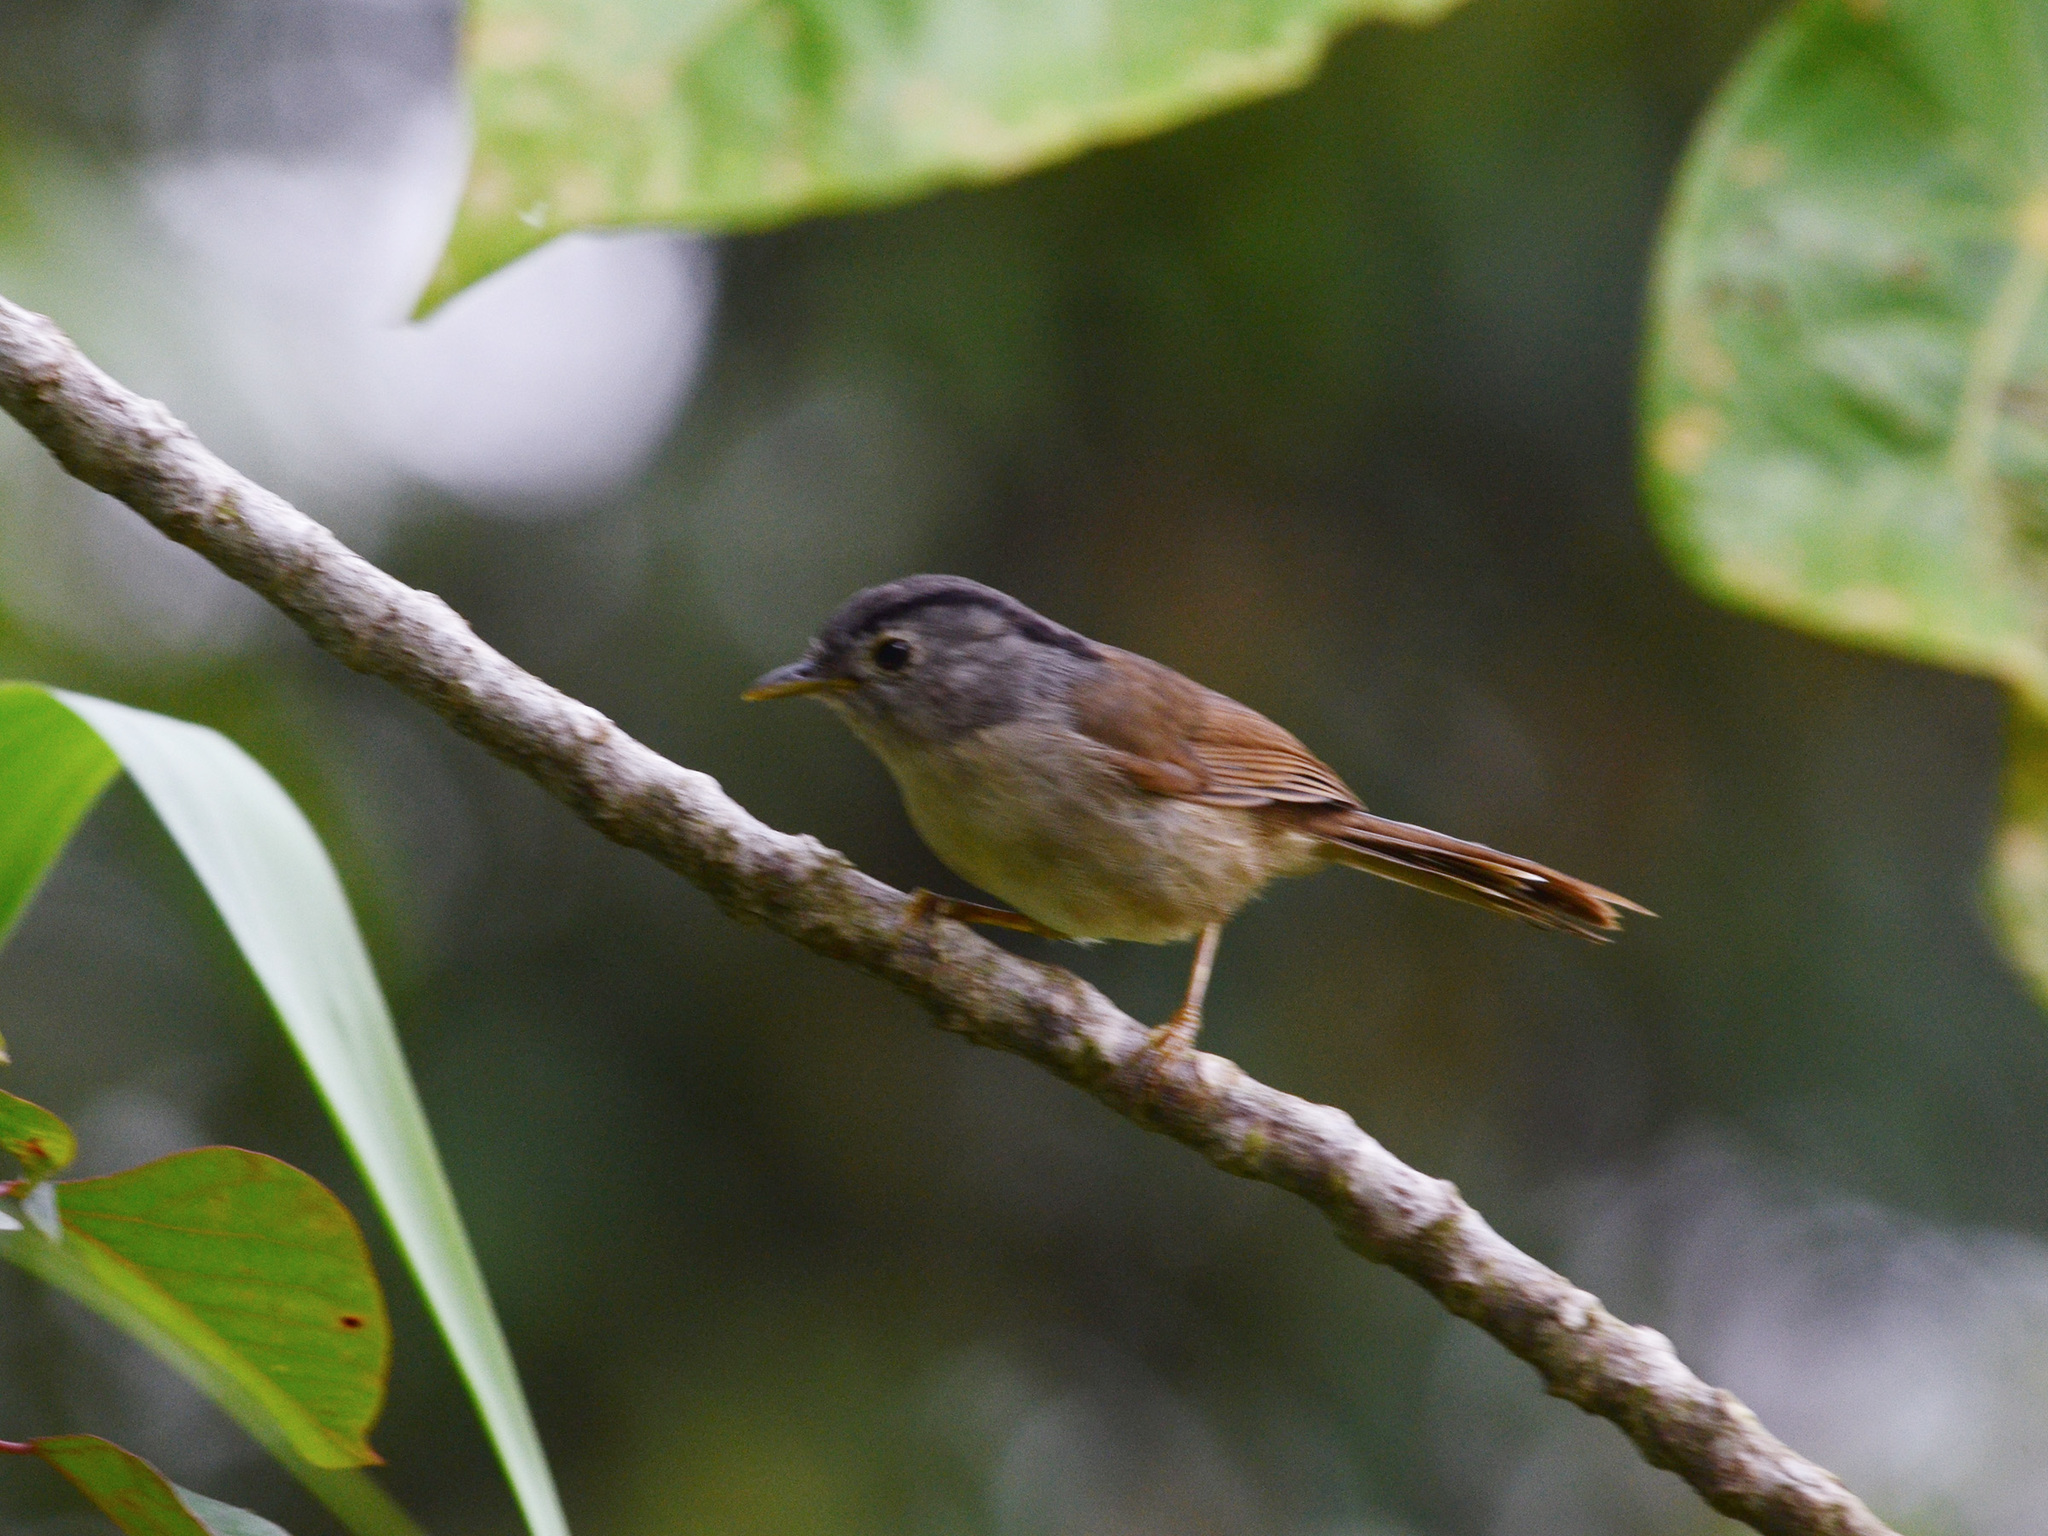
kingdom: Animalia
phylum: Chordata
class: Aves
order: Passeriformes
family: Pellorneidae
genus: Alcippe
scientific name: Alcippe peracensis
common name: Mountain fulvetta
